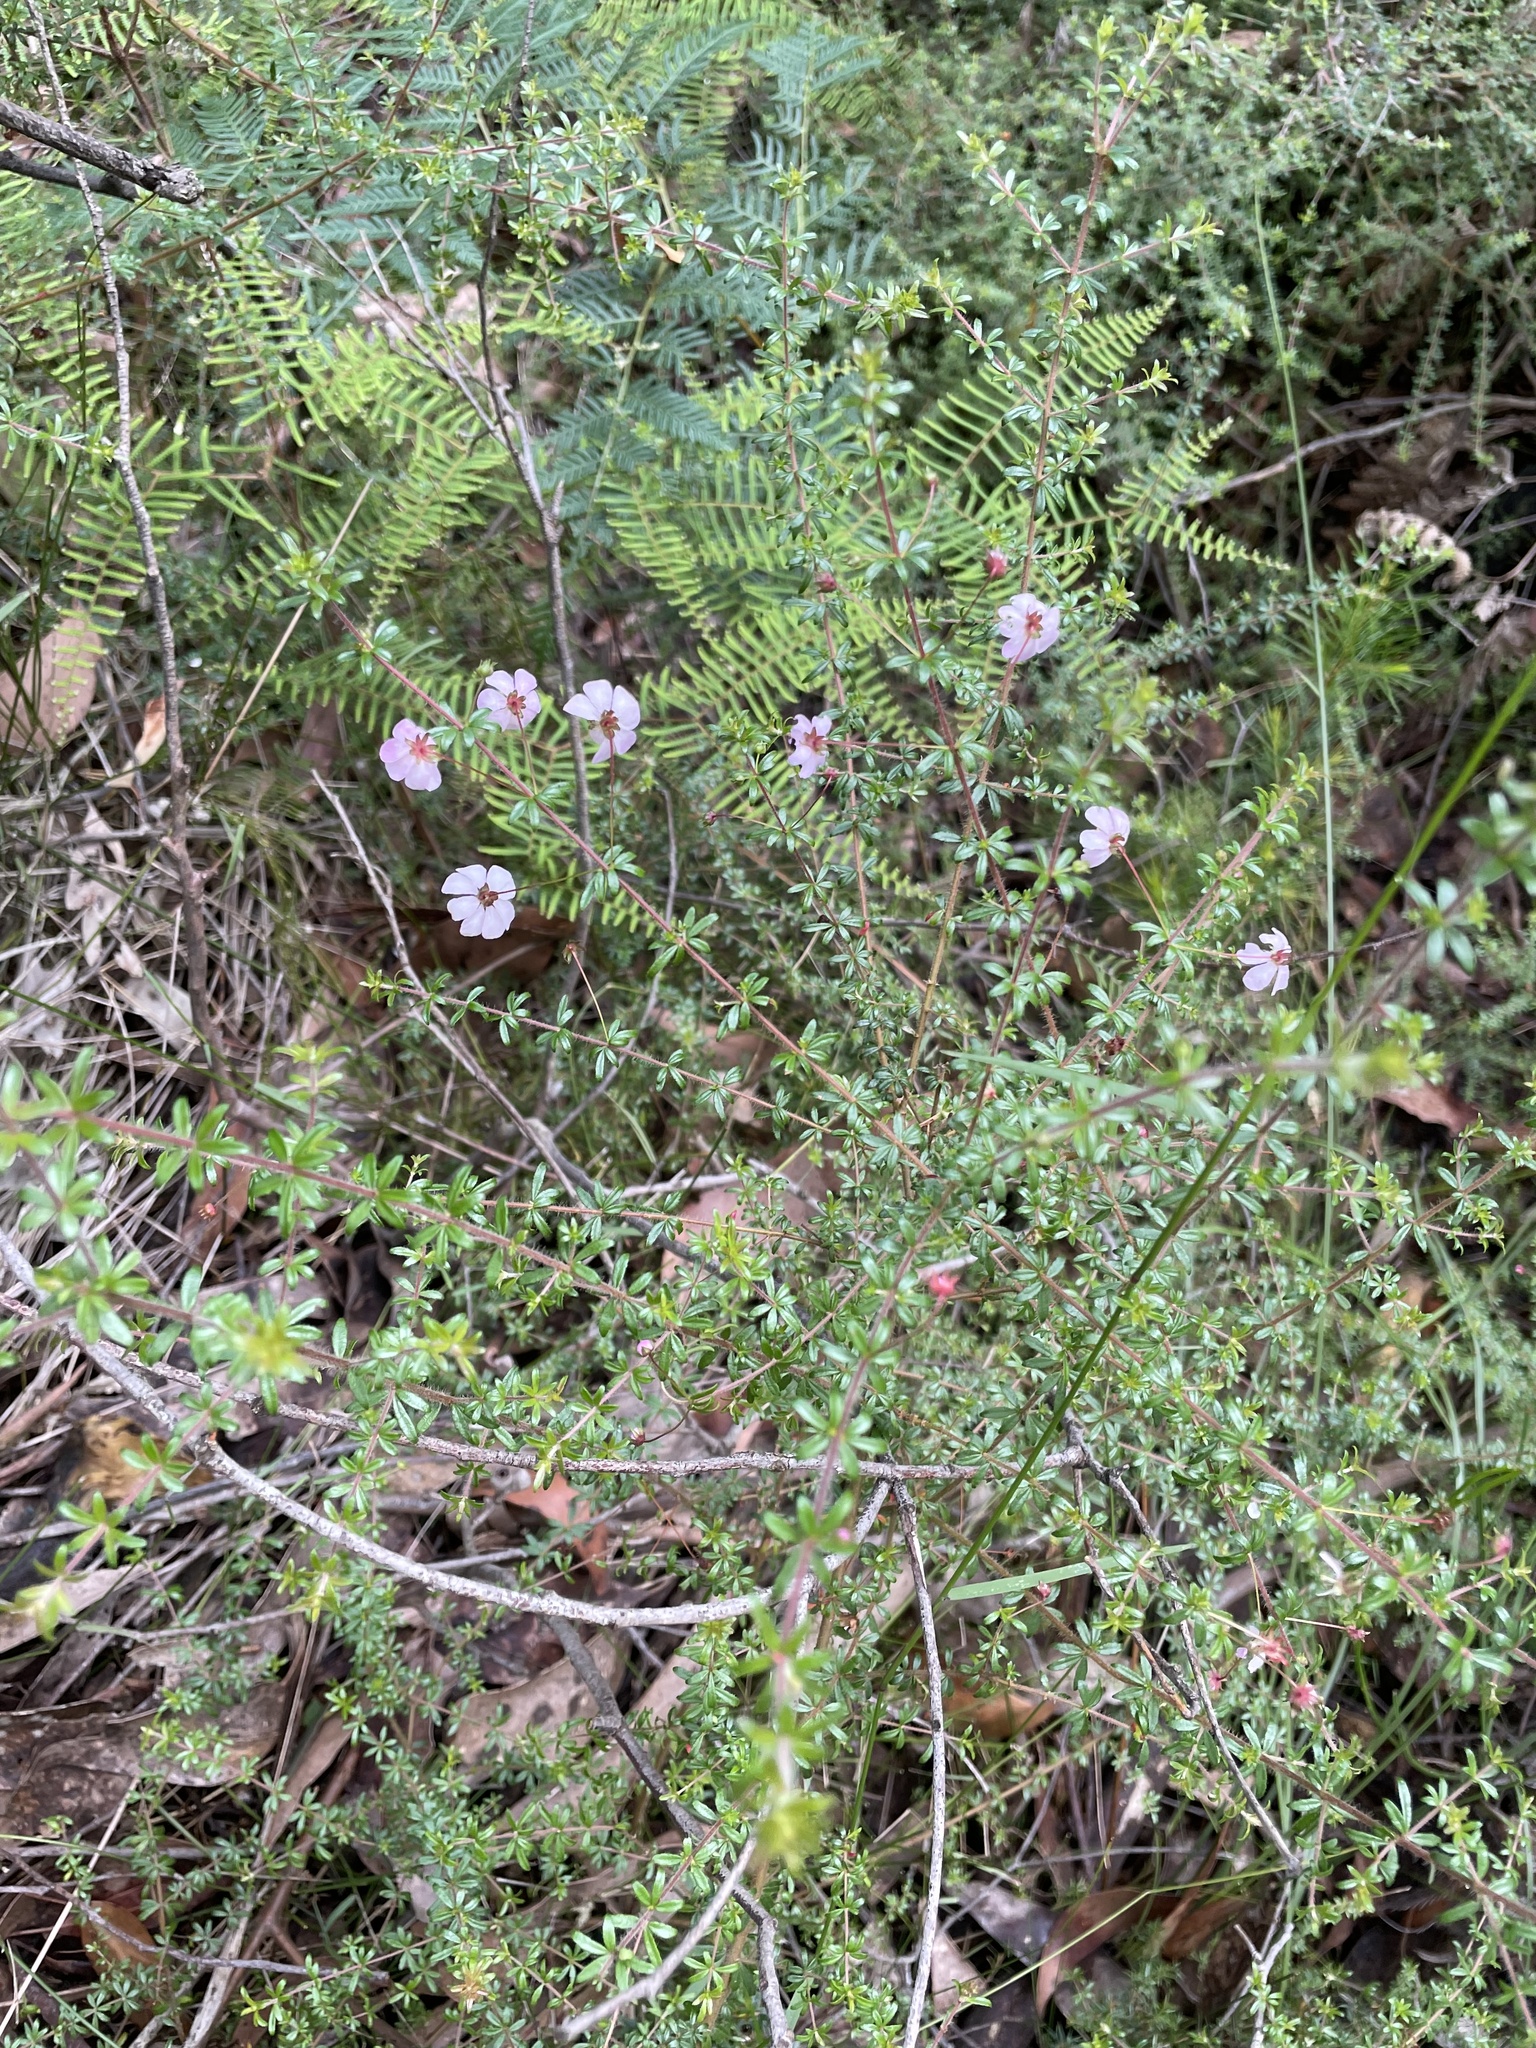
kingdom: Plantae
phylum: Tracheophyta
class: Magnoliopsida
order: Oxalidales
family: Cunoniaceae
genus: Bauera
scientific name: Bauera rubioides
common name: River-rose
